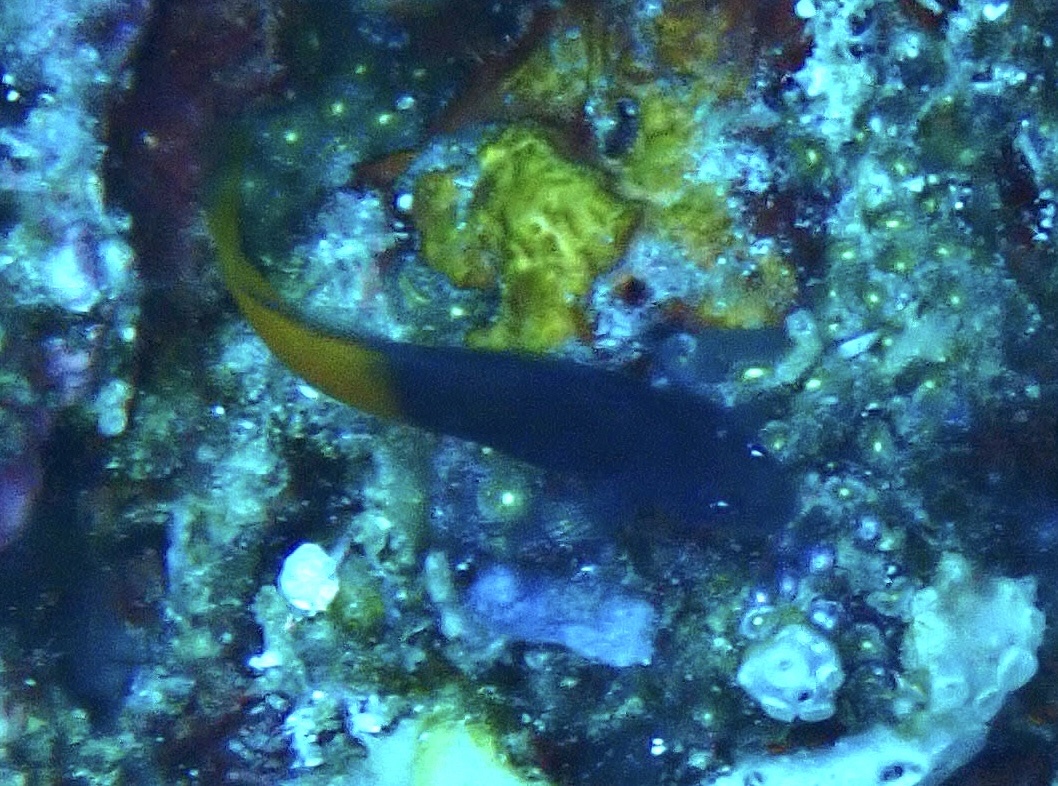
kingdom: Animalia
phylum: Chordata
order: Perciformes
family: Blenniidae
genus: Ecsenius
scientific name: Ecsenius bicolor
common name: Bicolor blenny
